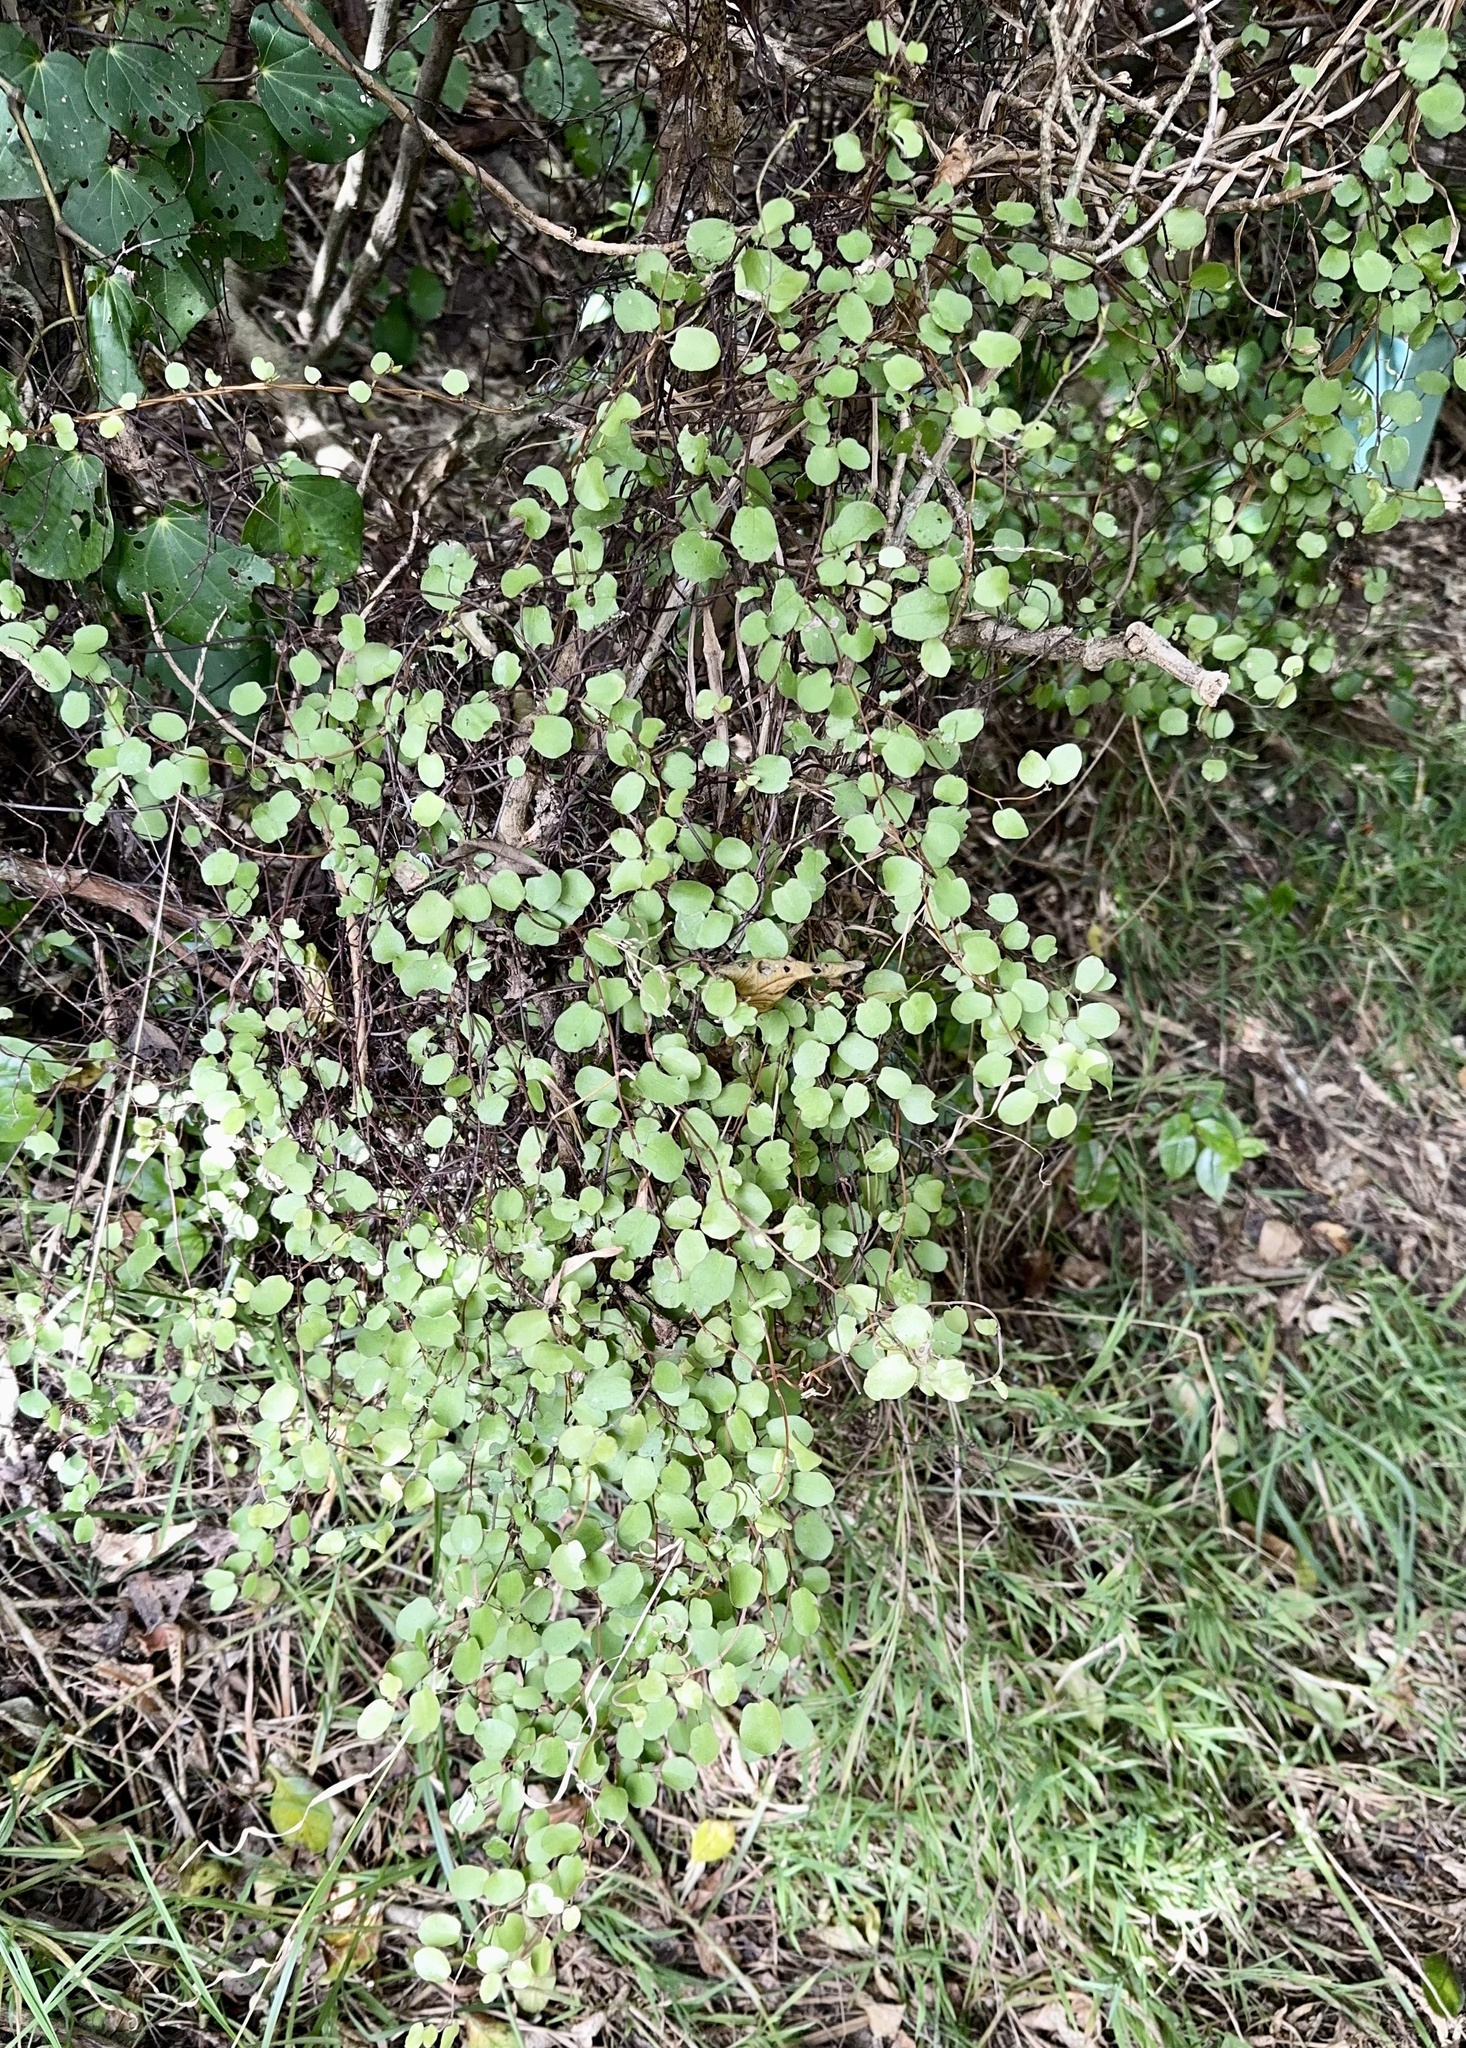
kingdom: Plantae
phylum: Tracheophyta
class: Magnoliopsida
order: Caryophyllales
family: Polygonaceae
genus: Muehlenbeckia
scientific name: Muehlenbeckia complexa
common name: Wireplant
